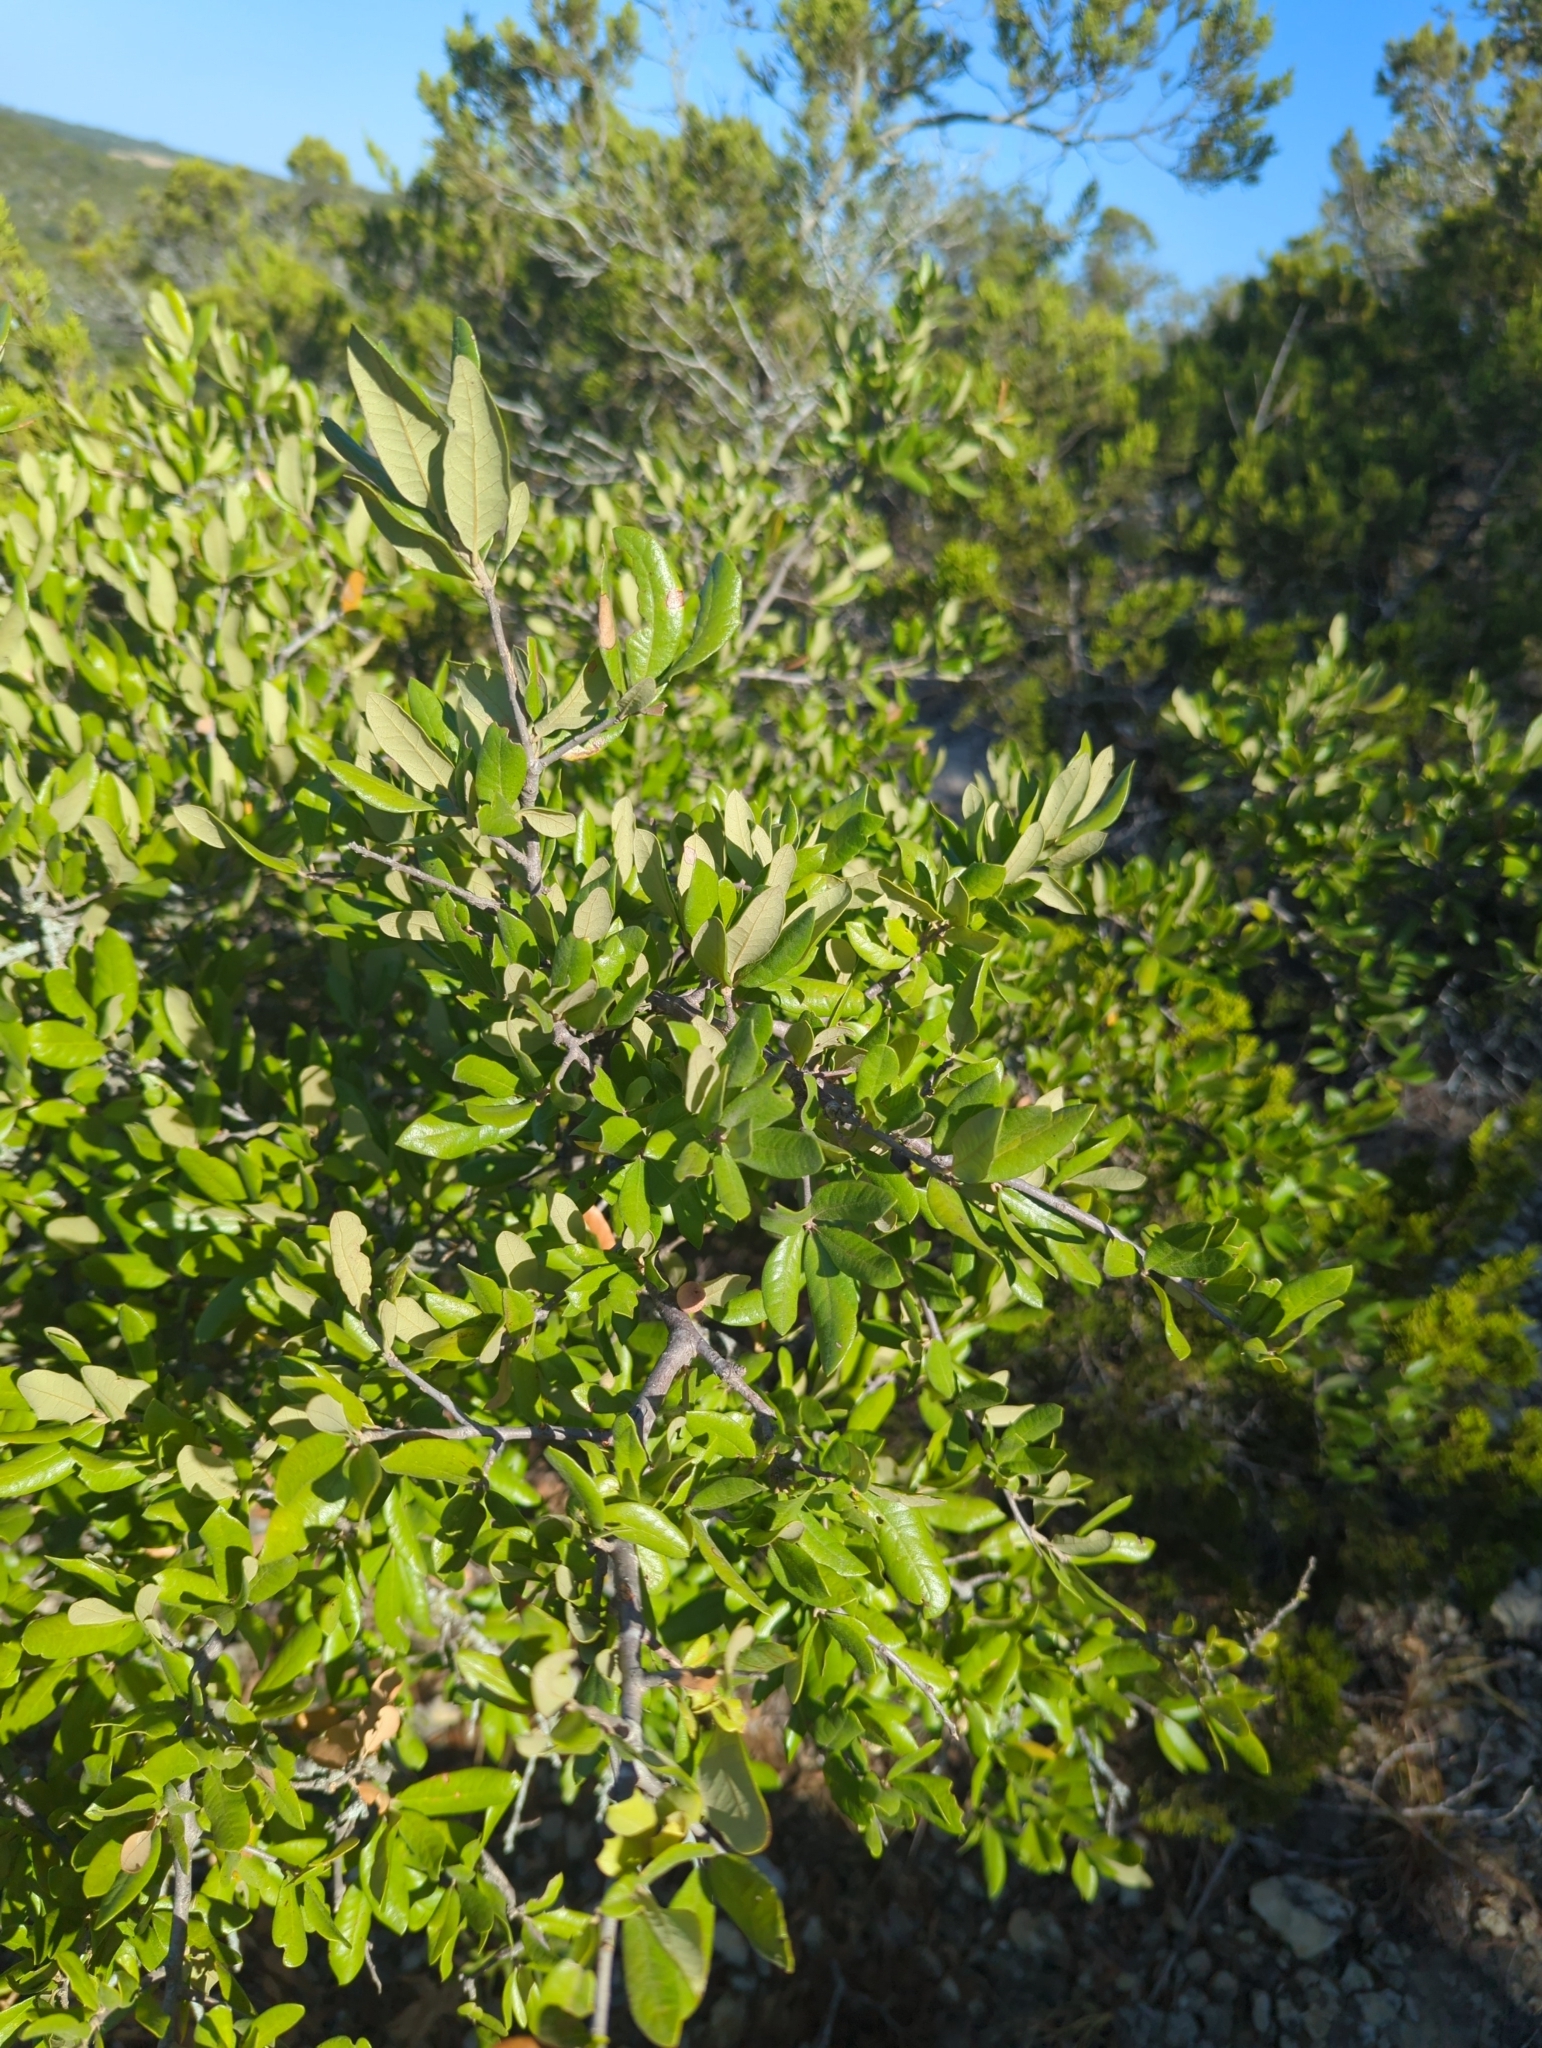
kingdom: Plantae
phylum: Tracheophyta
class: Magnoliopsida
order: Fagales
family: Fagaceae
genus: Quercus
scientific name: Quercus fusiformis
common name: Texas live oak
